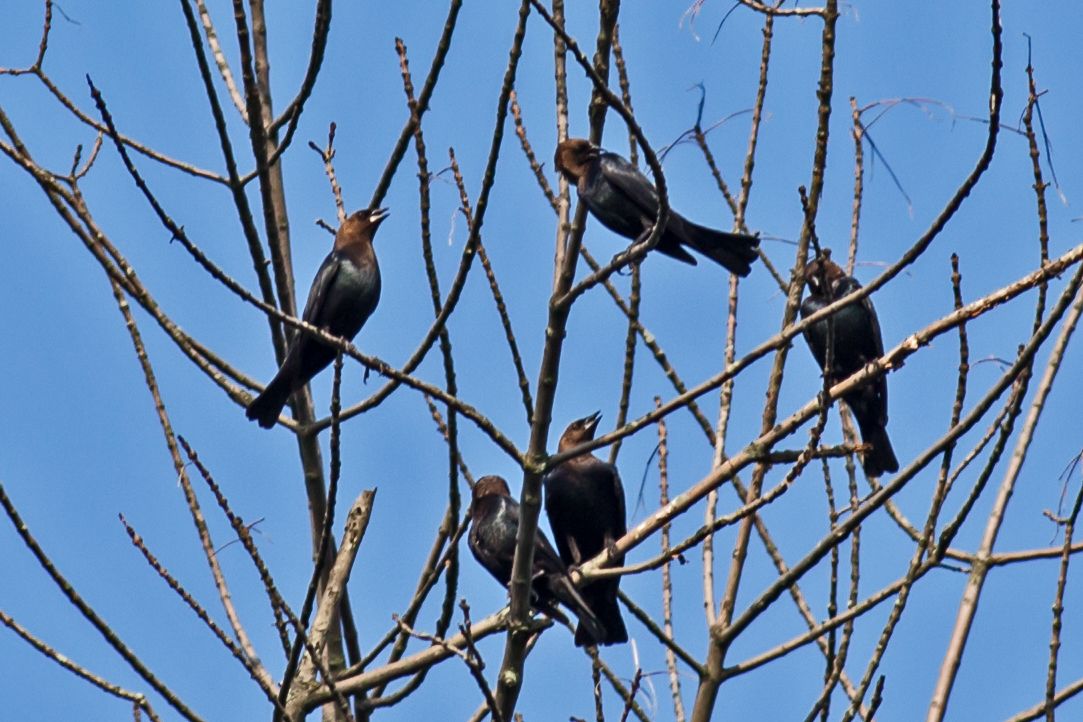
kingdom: Animalia
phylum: Chordata
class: Aves
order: Passeriformes
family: Icteridae
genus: Molothrus
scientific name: Molothrus ater
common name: Brown-headed cowbird
